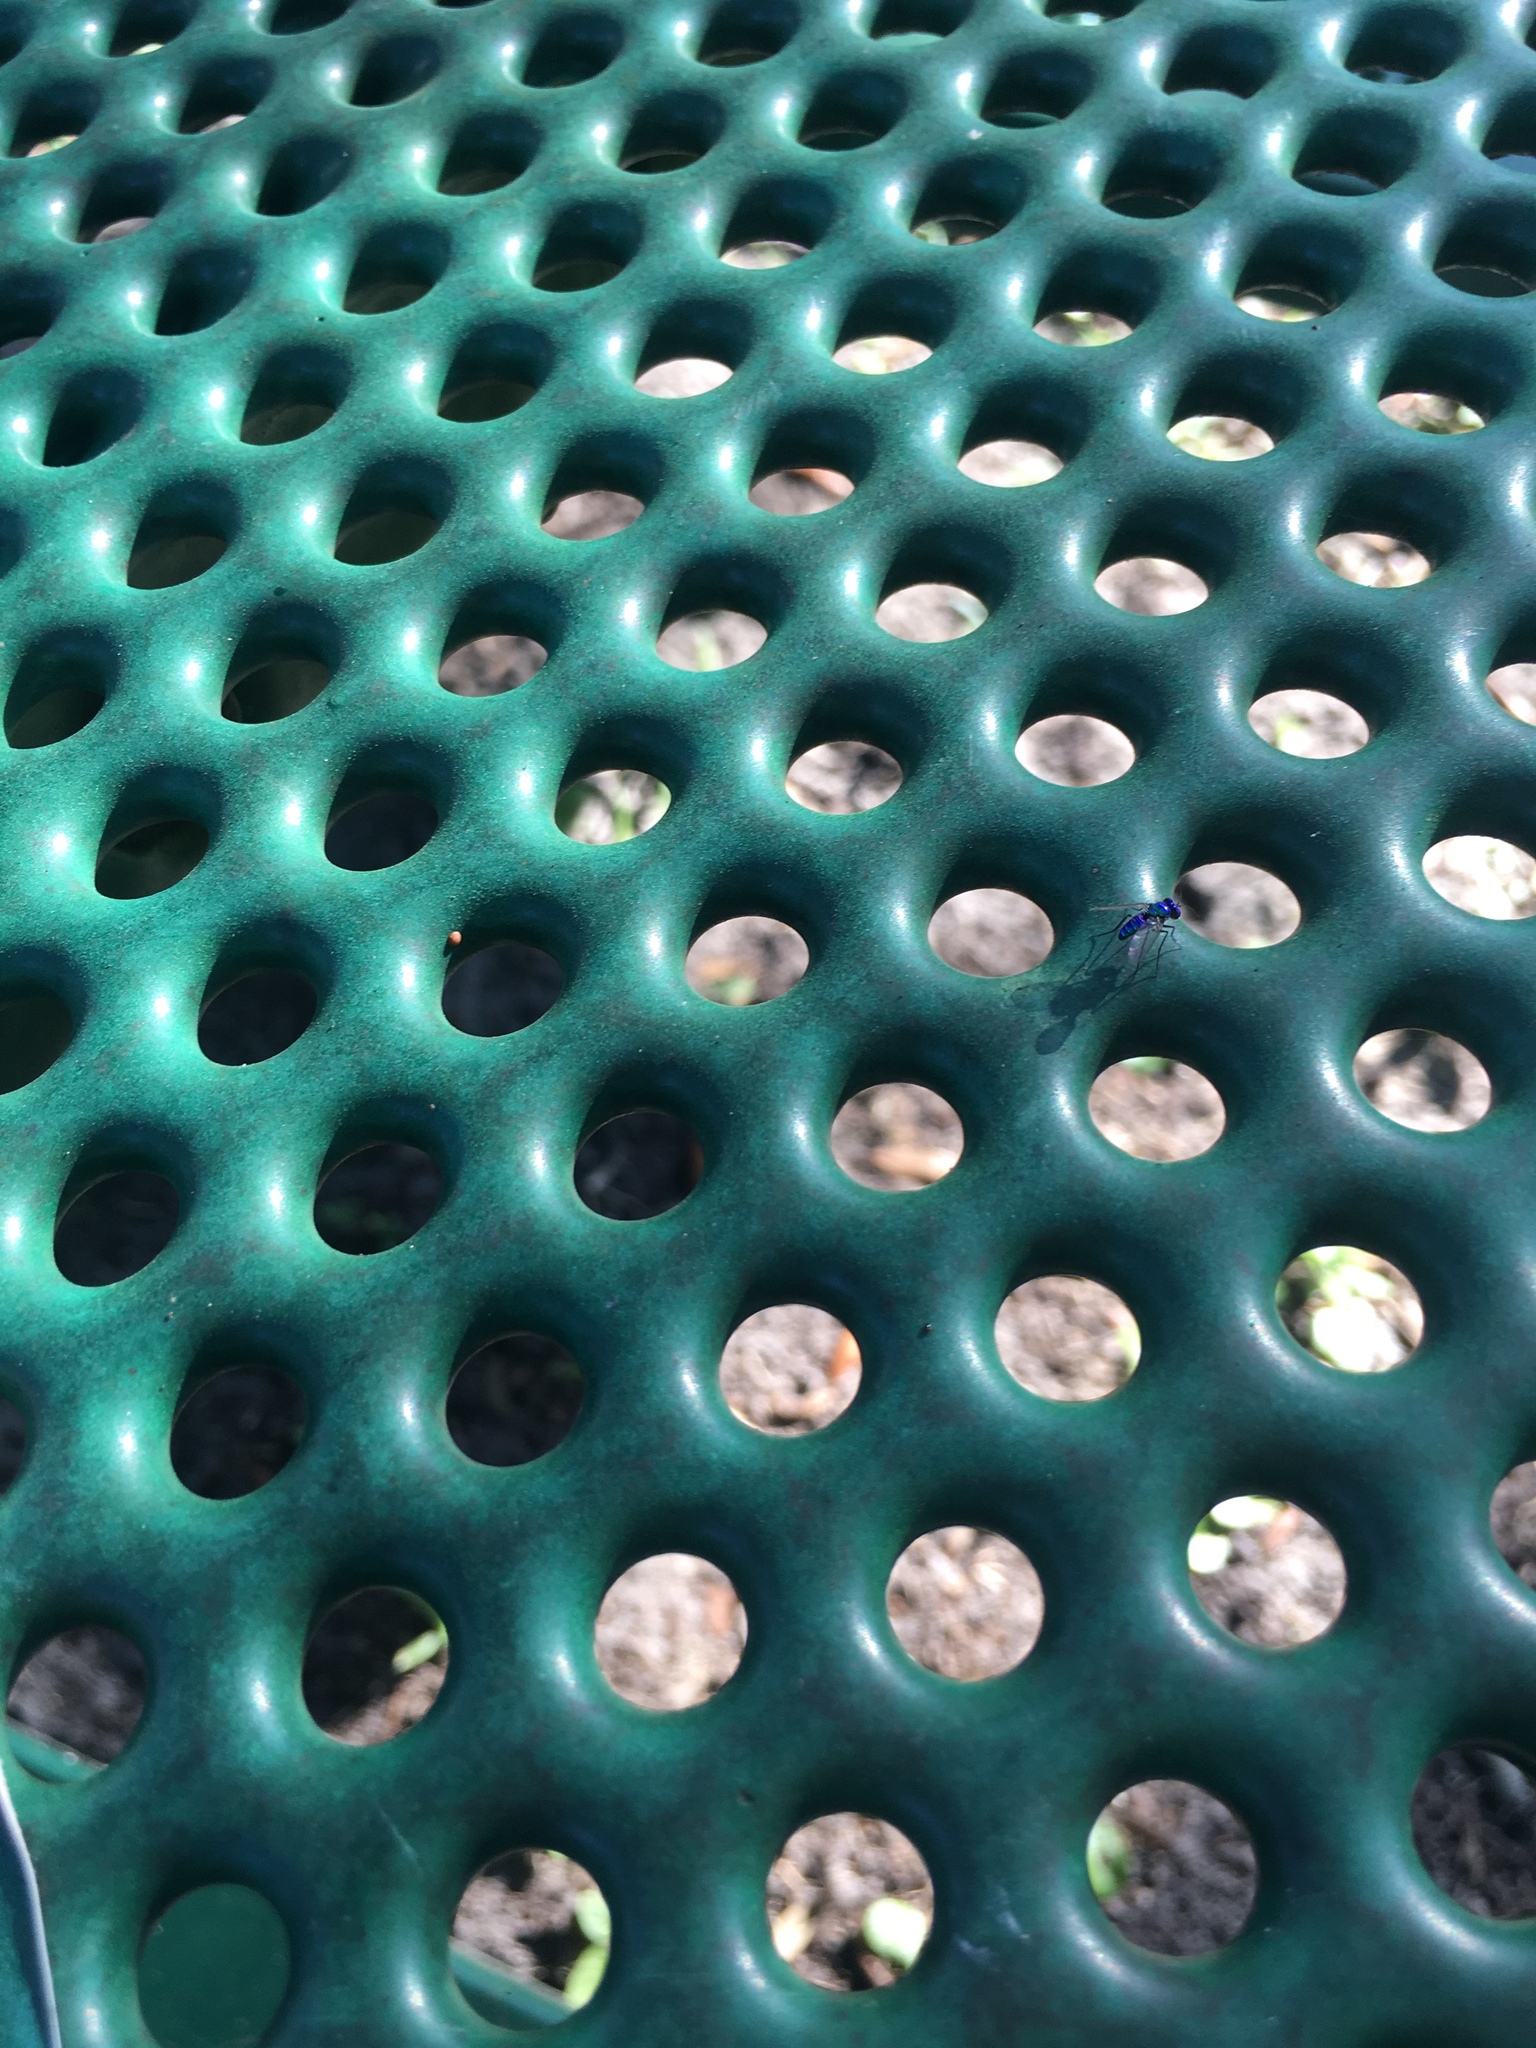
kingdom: Animalia
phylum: Arthropoda
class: Insecta
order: Diptera
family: Dolichopodidae
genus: Condylostylus
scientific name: Condylostylus mundus
